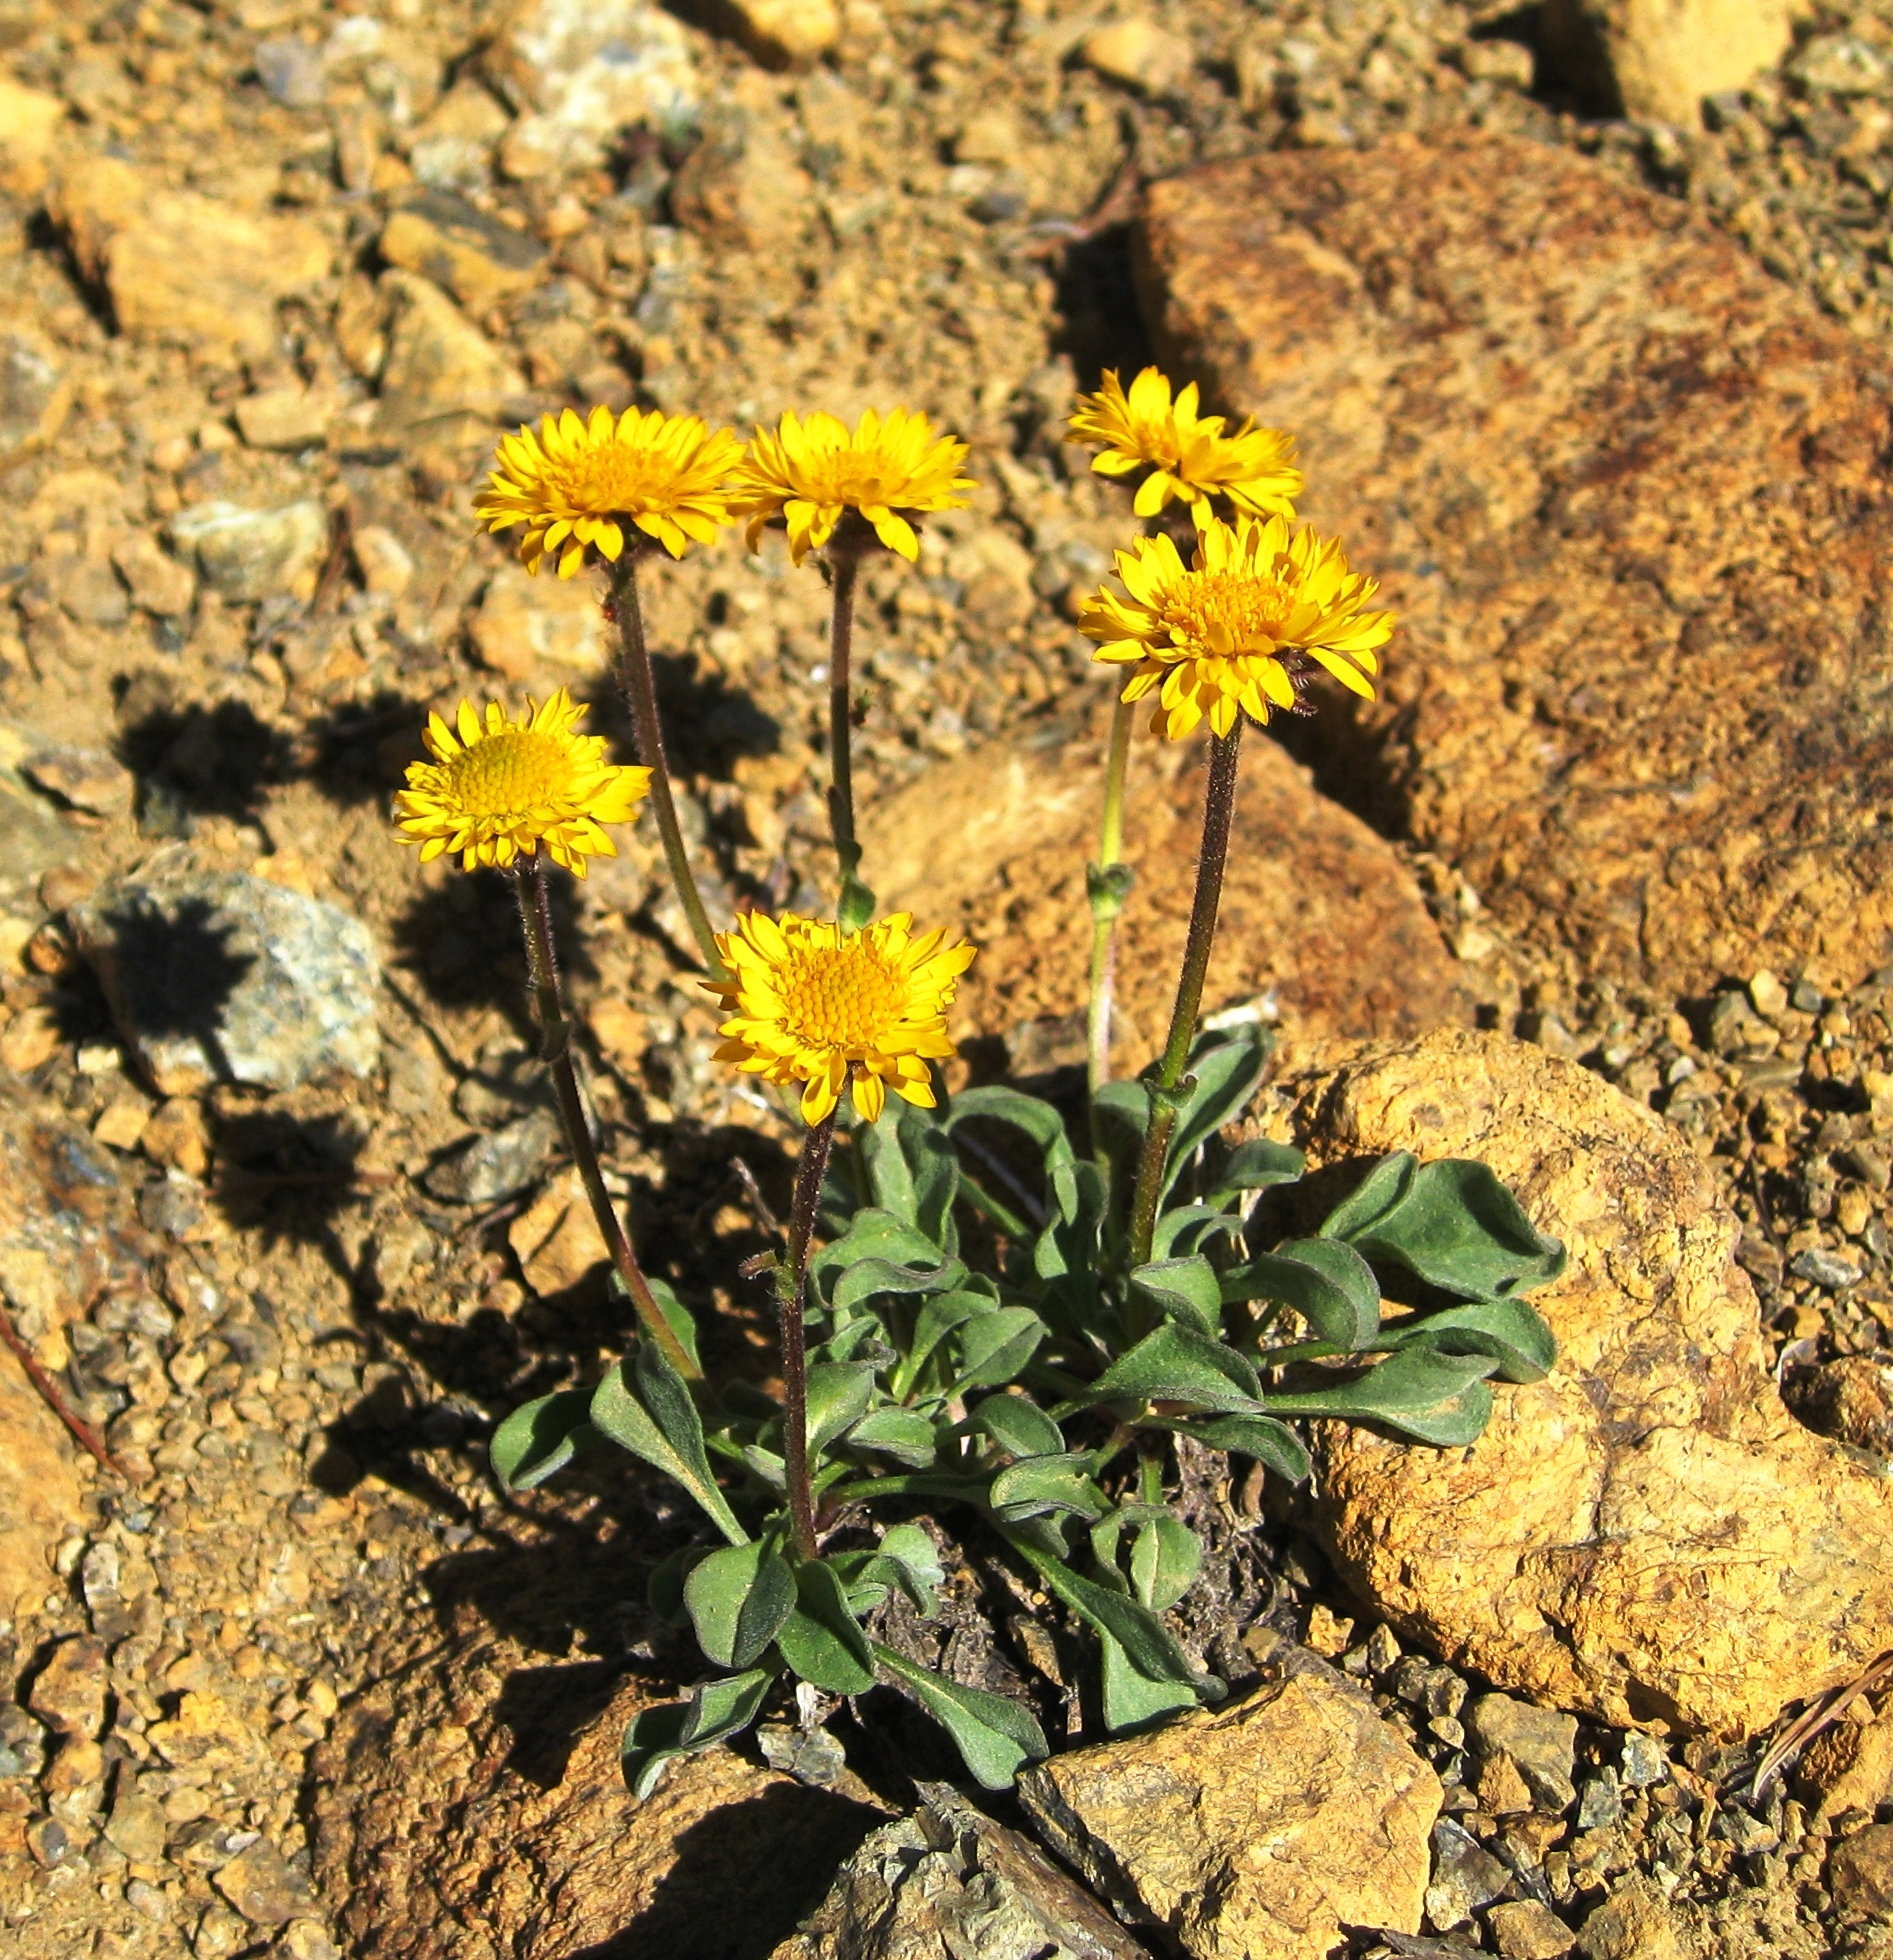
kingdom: Plantae
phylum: Tracheophyta
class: Magnoliopsida
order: Asterales
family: Asteraceae
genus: Erigeron
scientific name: Erigeron aureus
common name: Alpine yellow fleabane
